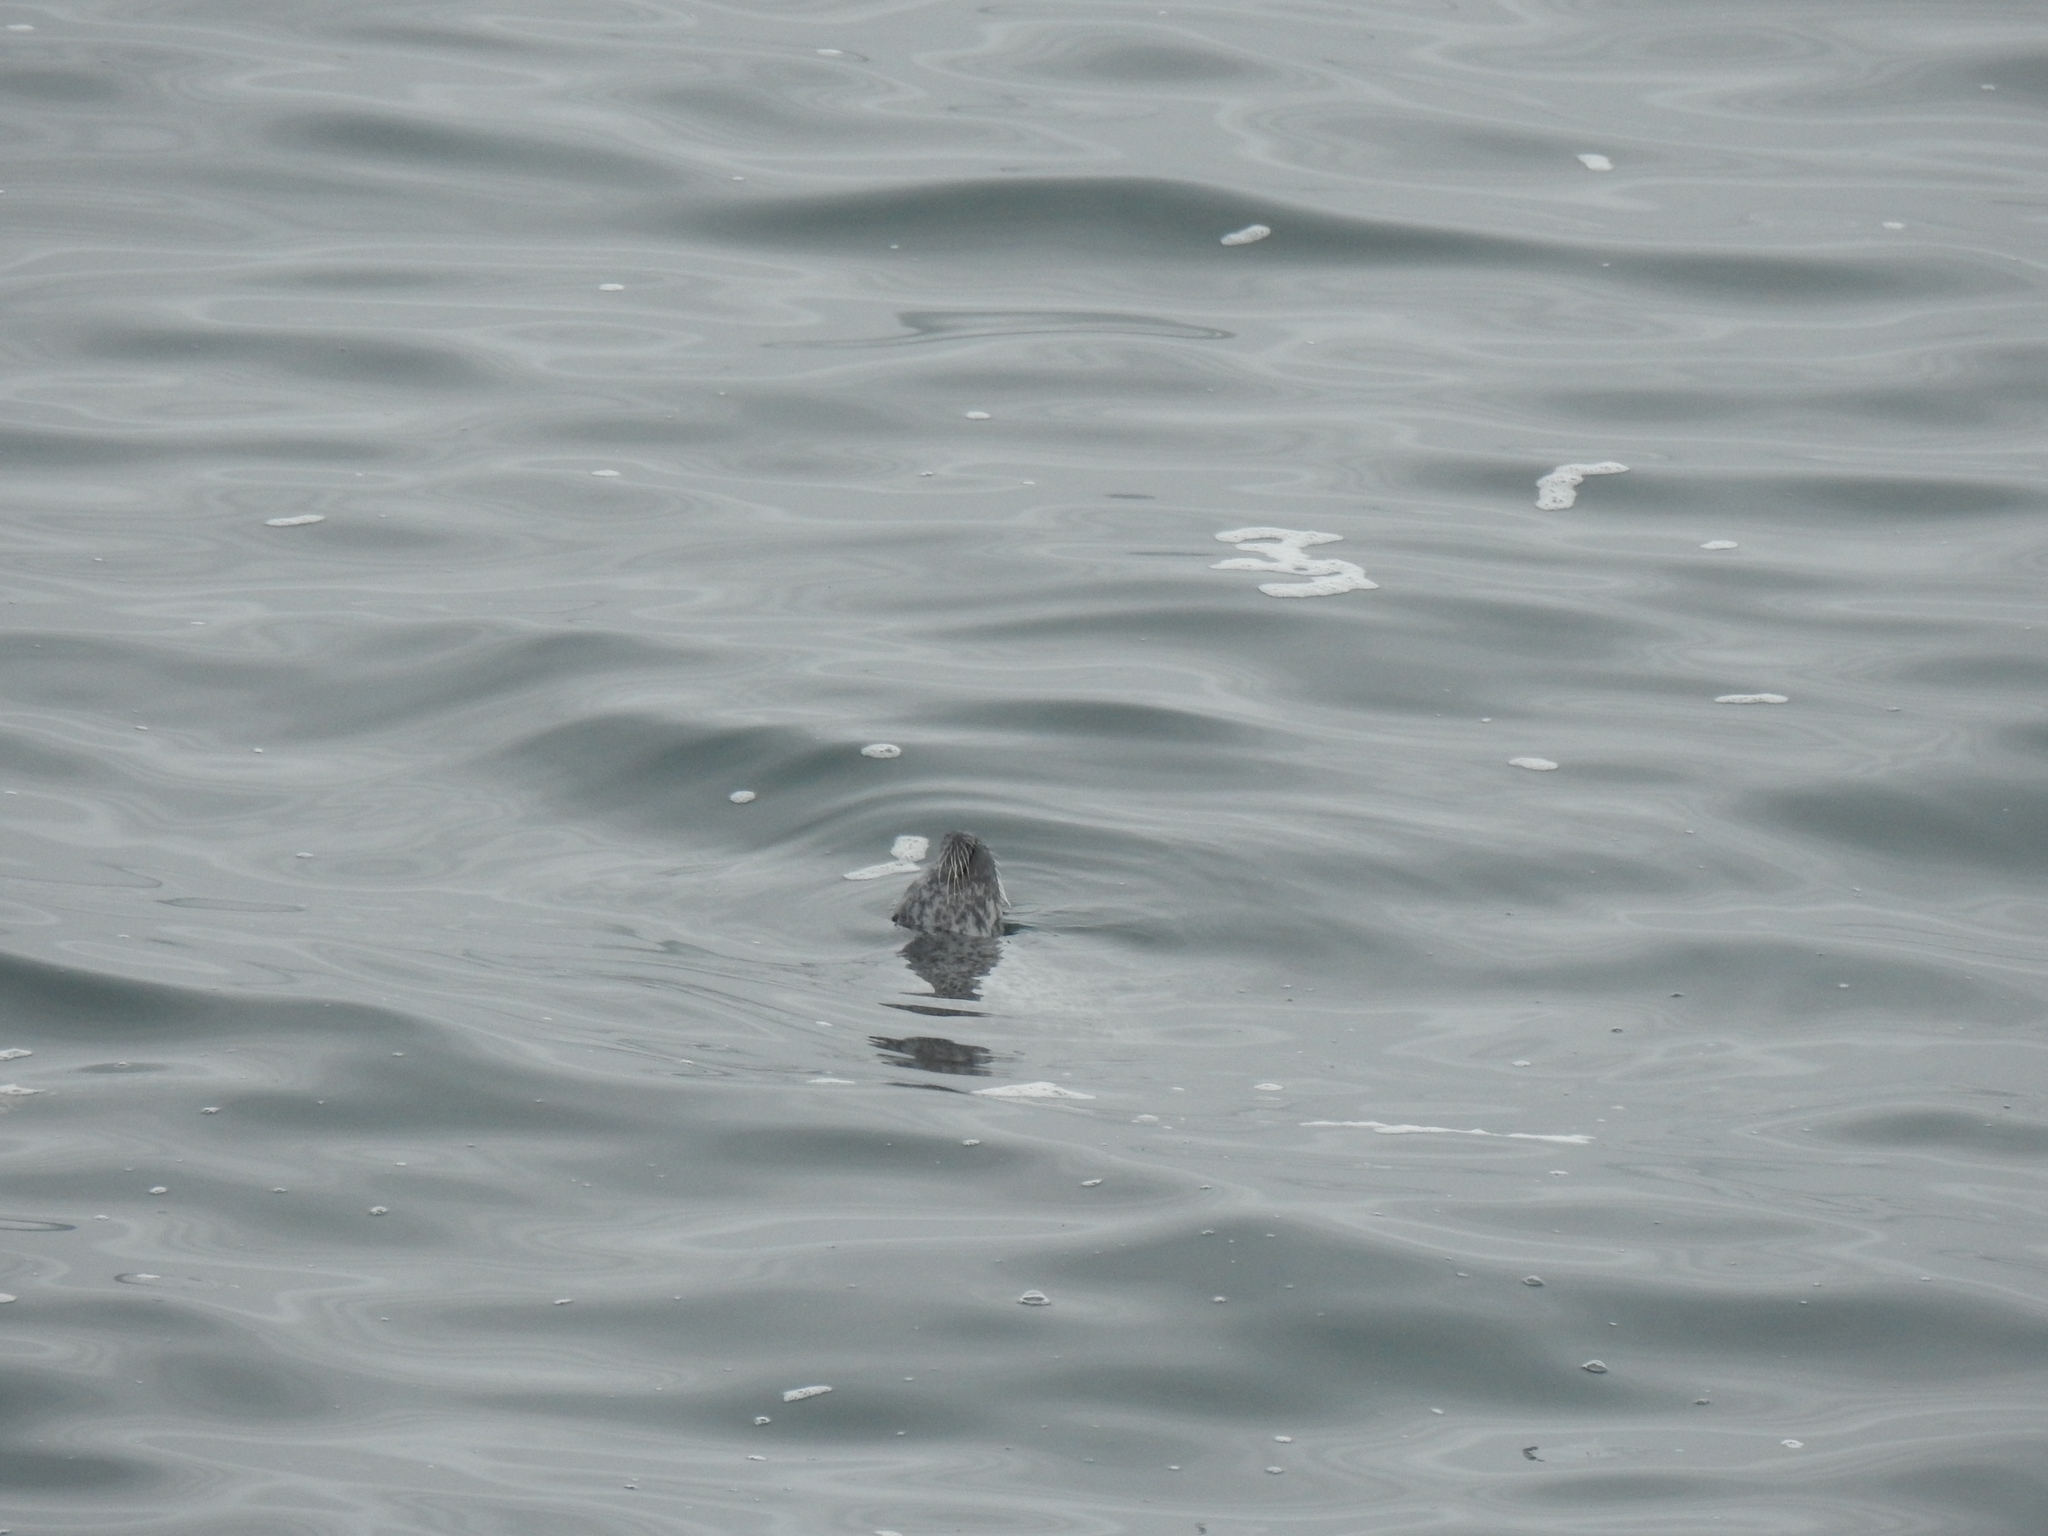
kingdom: Animalia
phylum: Chordata
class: Mammalia
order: Carnivora
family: Phocidae
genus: Phoca
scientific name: Phoca vitulina
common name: Harbor seal
